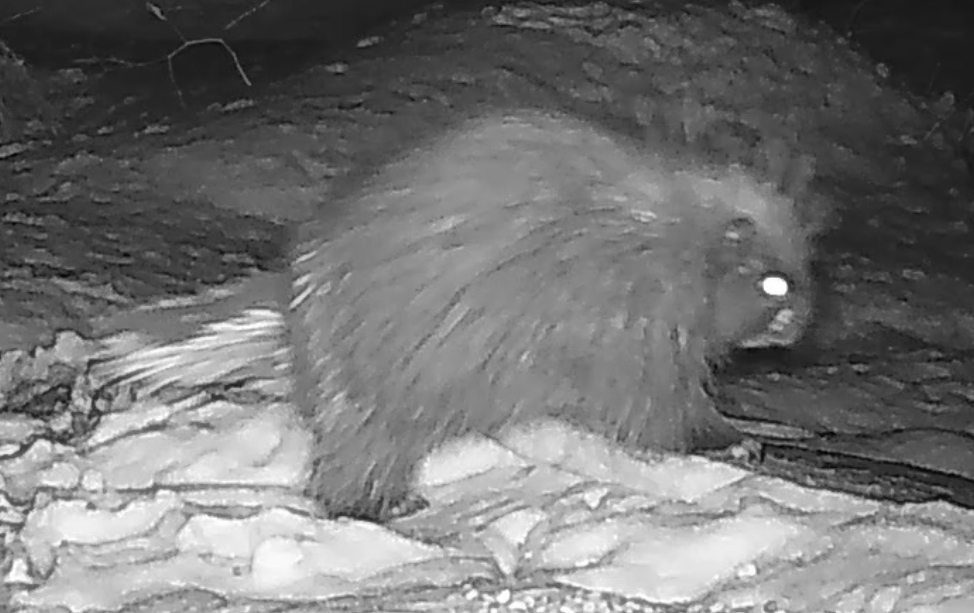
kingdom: Animalia
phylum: Chordata
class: Mammalia
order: Rodentia
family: Erethizontidae
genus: Erethizon
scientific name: Erethizon dorsatus
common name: North american porcupine
